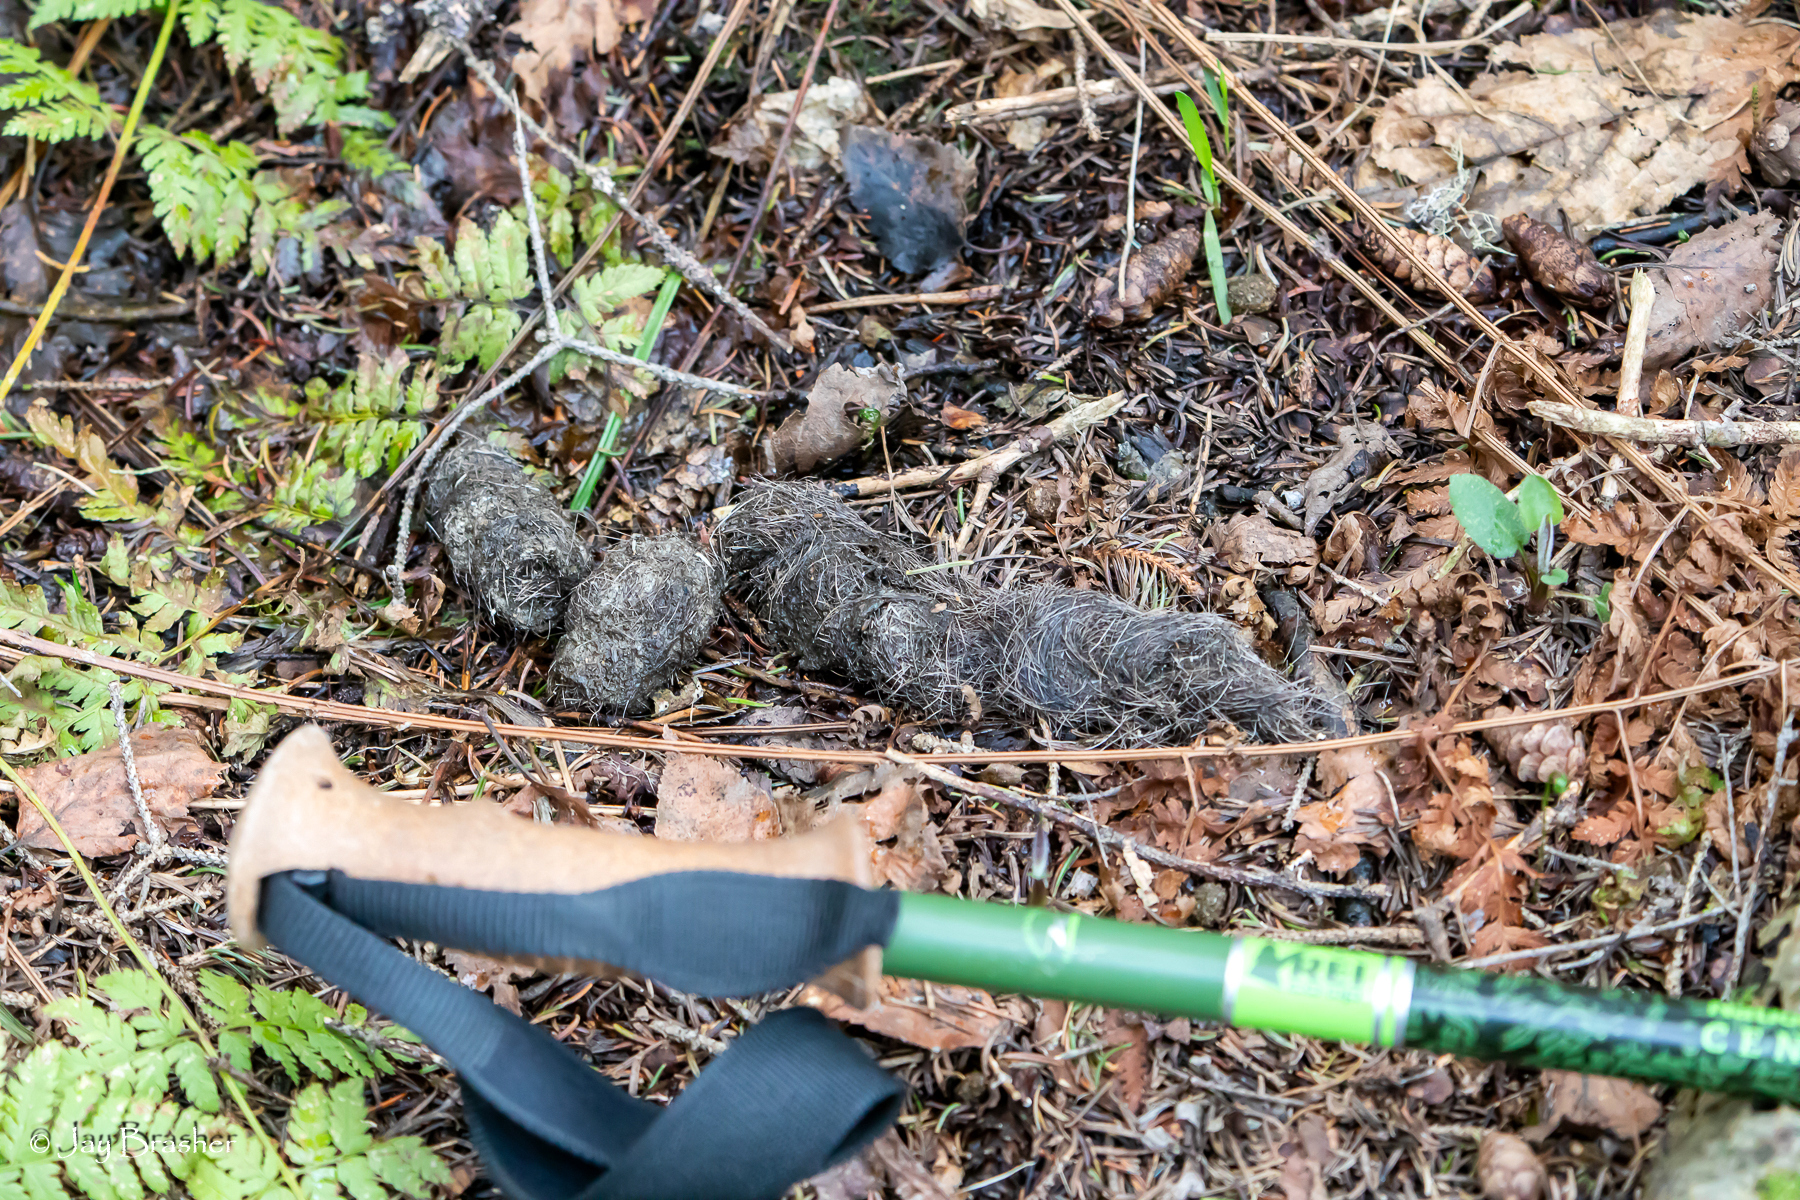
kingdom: Animalia
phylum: Chordata
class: Mammalia
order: Carnivora
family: Canidae
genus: Canis
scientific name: Canis lupus
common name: Gray wolf
